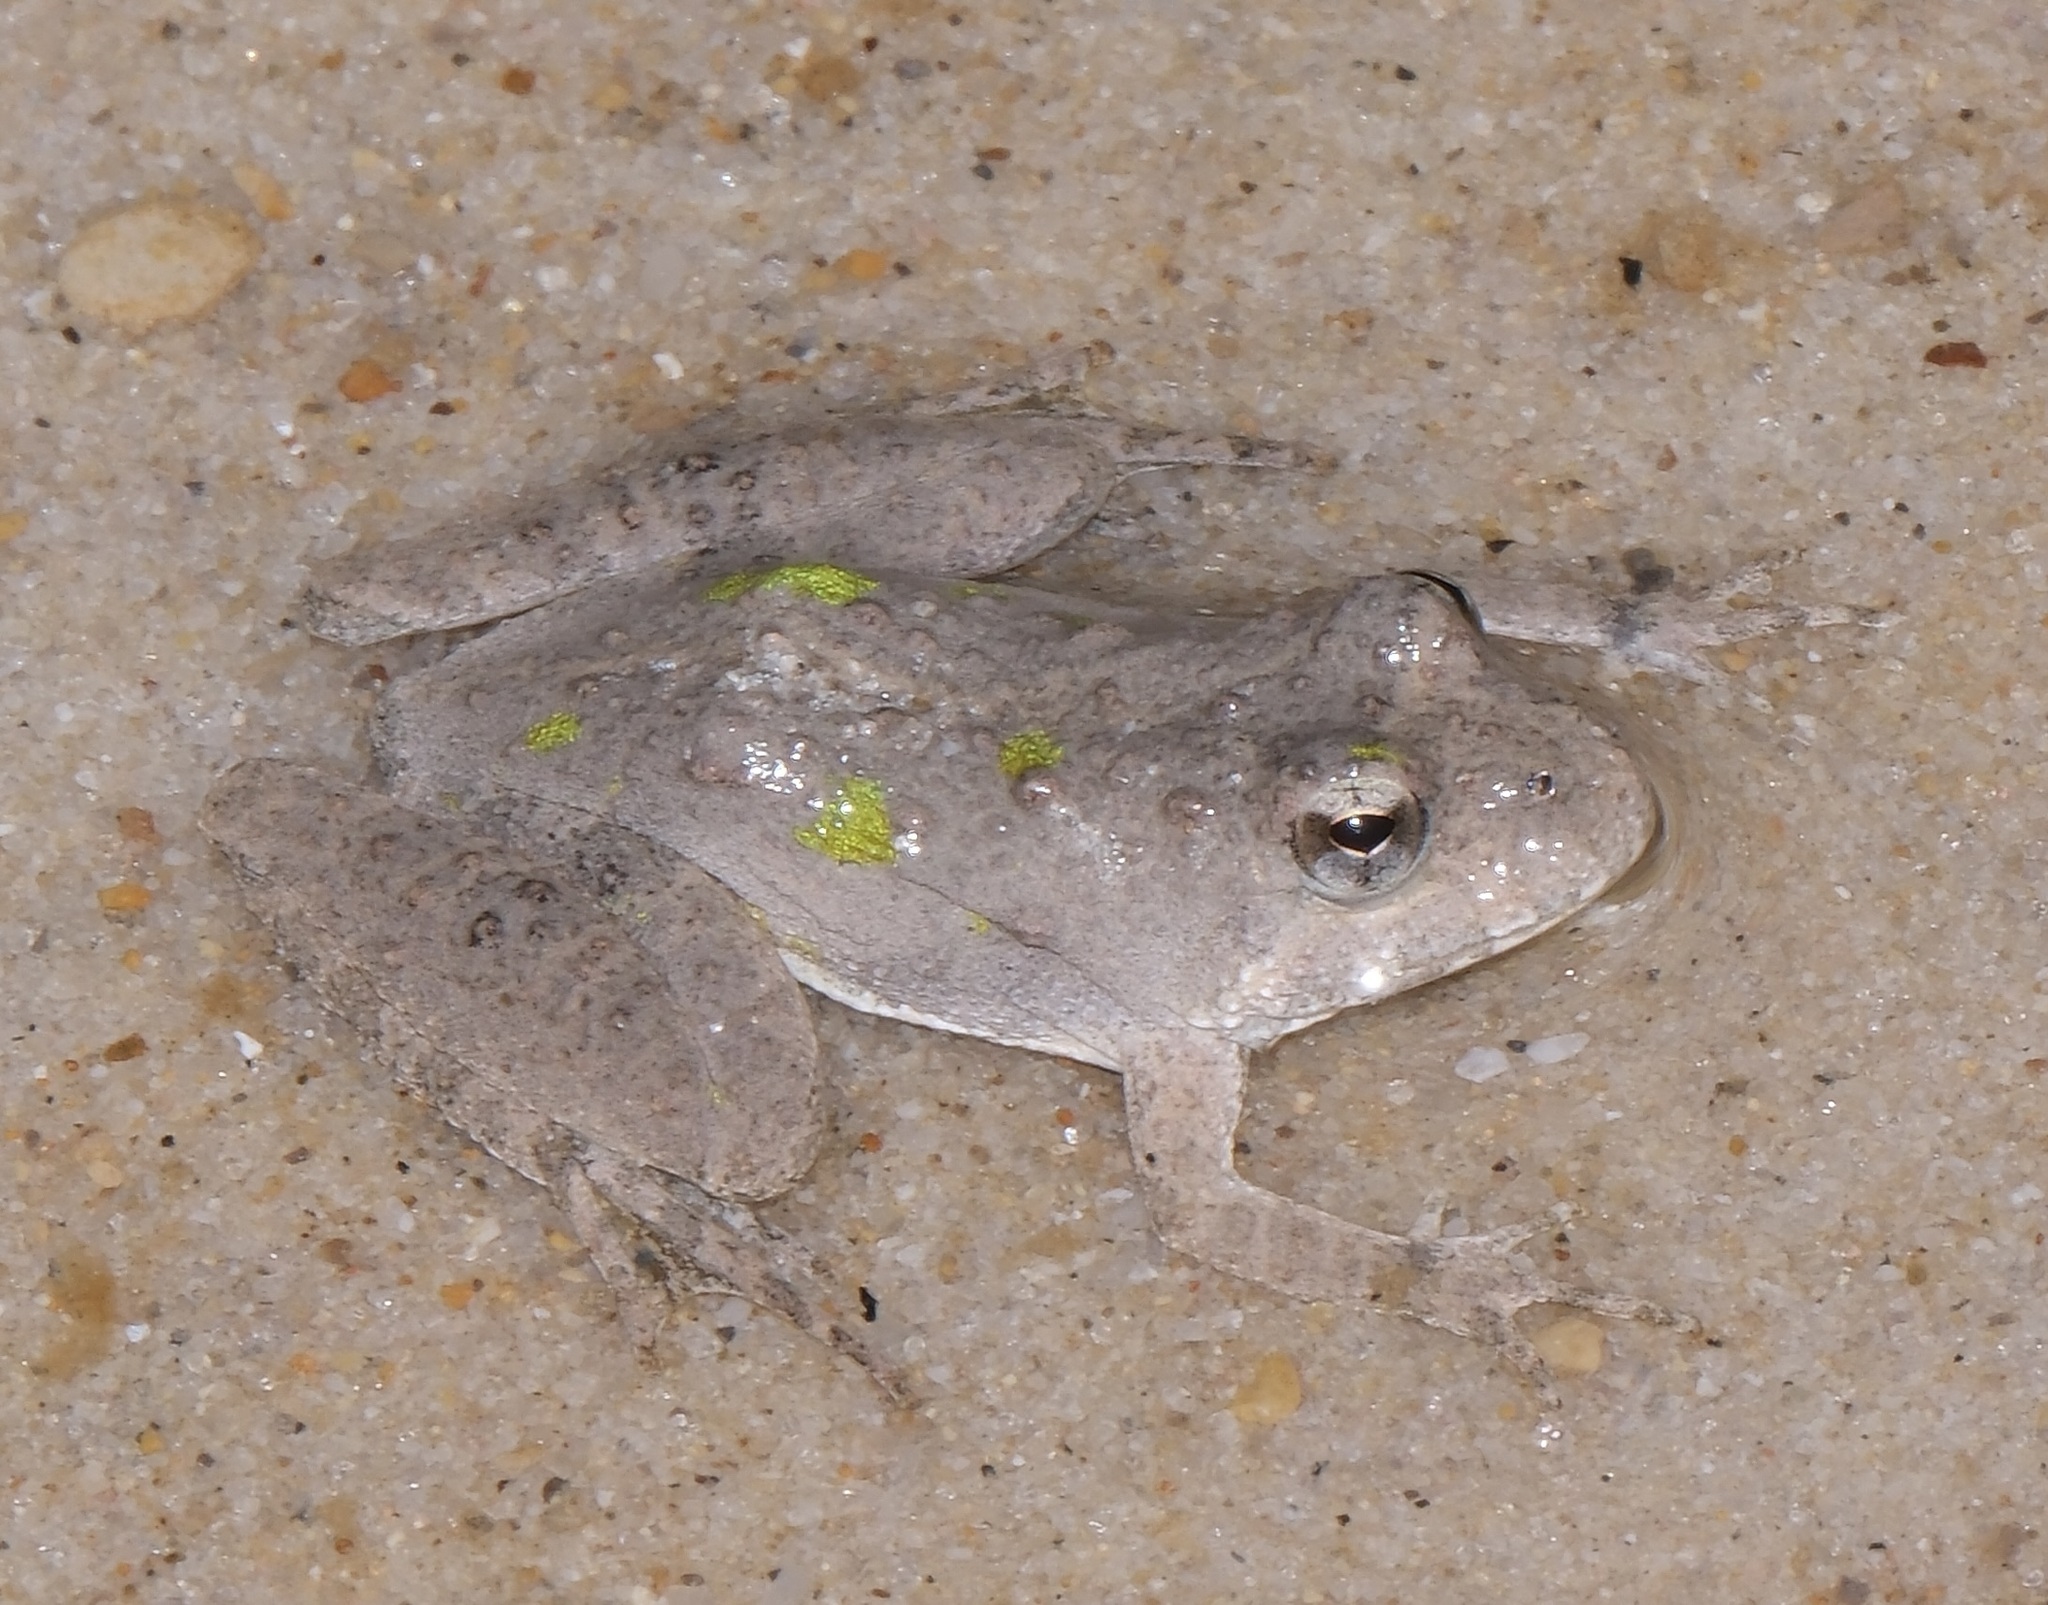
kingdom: Animalia
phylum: Chordata
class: Amphibia
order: Anura
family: Hylidae
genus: Acris
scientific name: Acris blanchardi
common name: Blanchard's cricket frog
